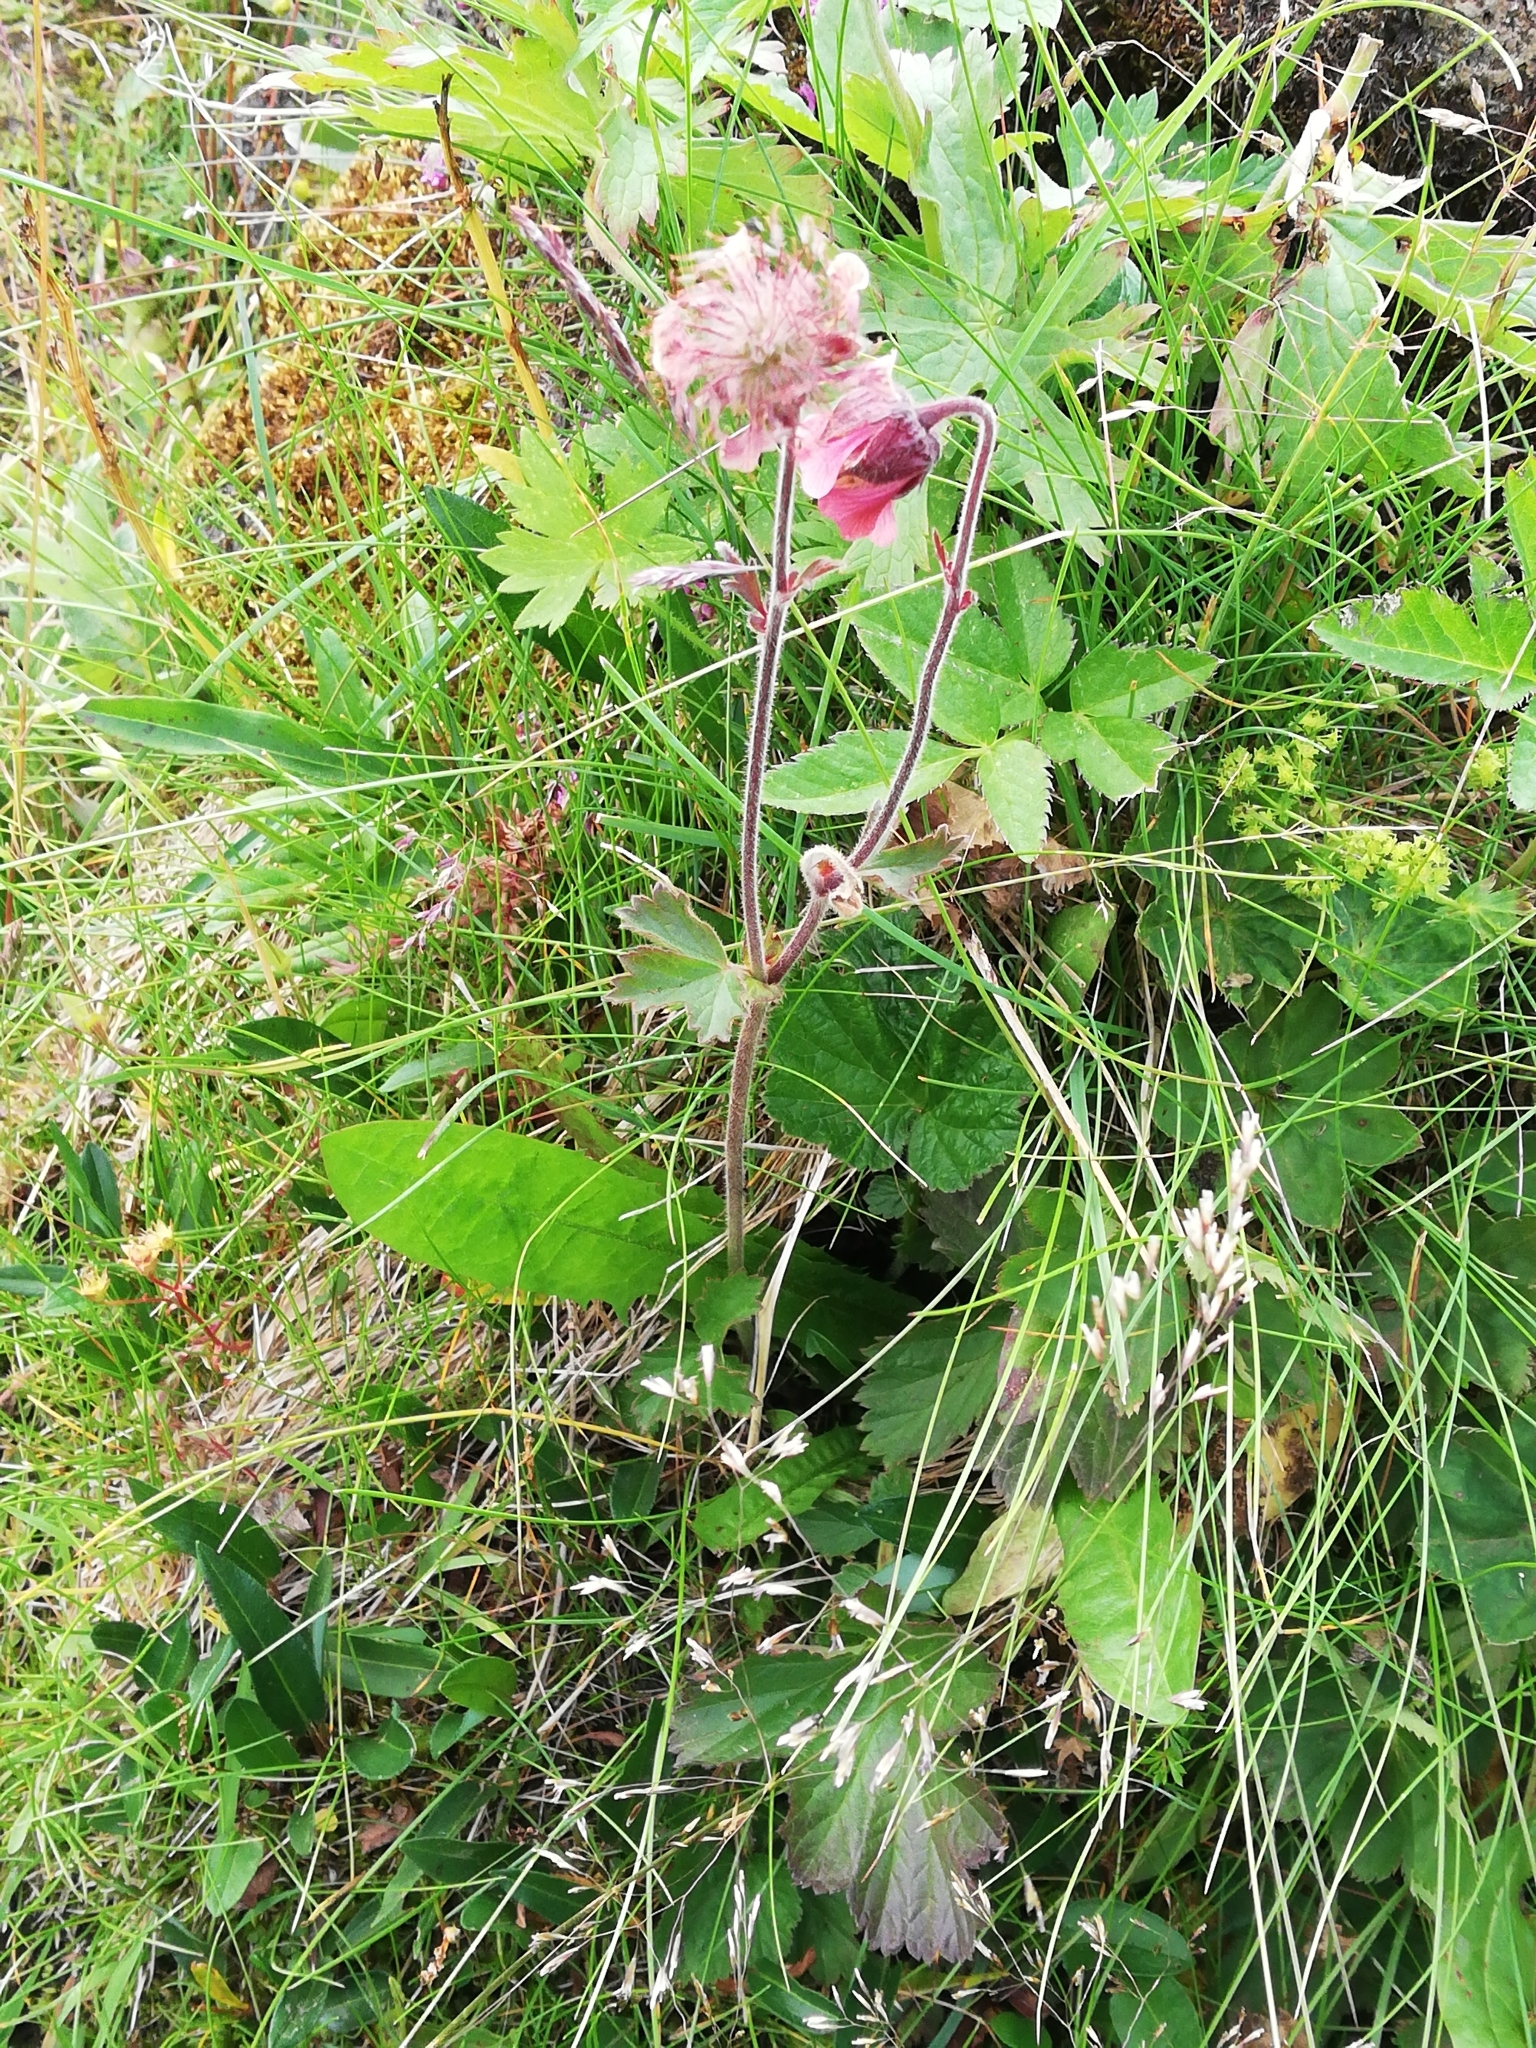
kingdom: Plantae
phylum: Tracheophyta
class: Magnoliopsida
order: Rosales
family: Rosaceae
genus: Geum
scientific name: Geum rivale
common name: Water avens
